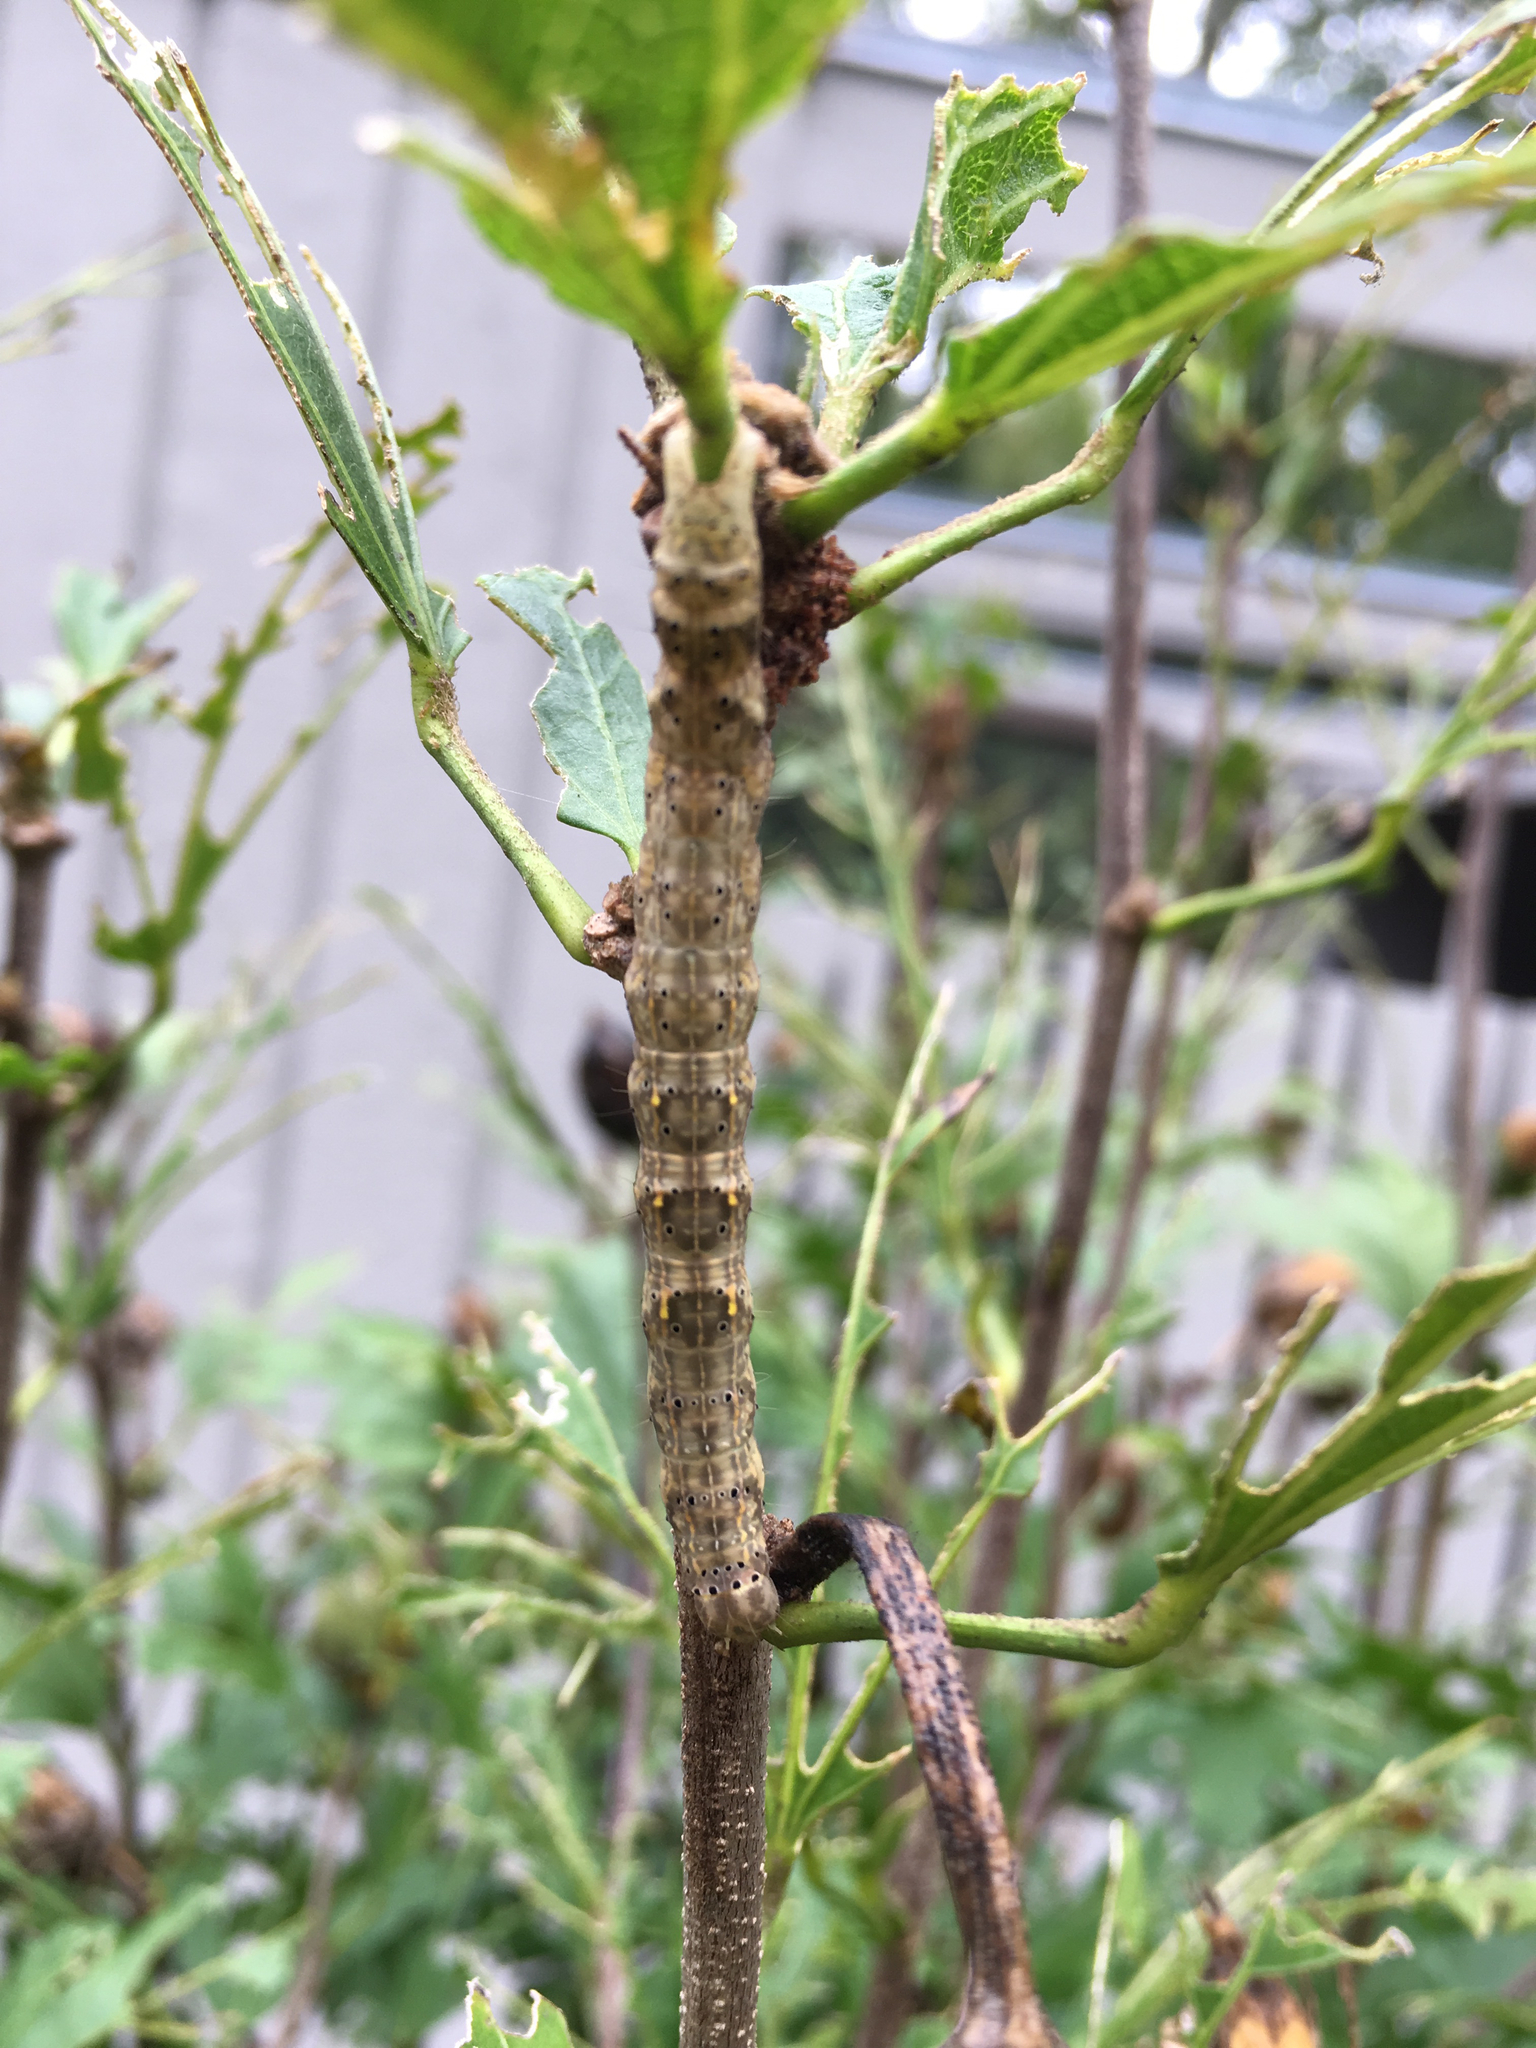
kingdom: Animalia
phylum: Arthropoda
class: Insecta
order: Lepidoptera
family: Erebidae
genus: Rusicada
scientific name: Rusicada privata
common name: Hibiscus leaf caterpillar moth
